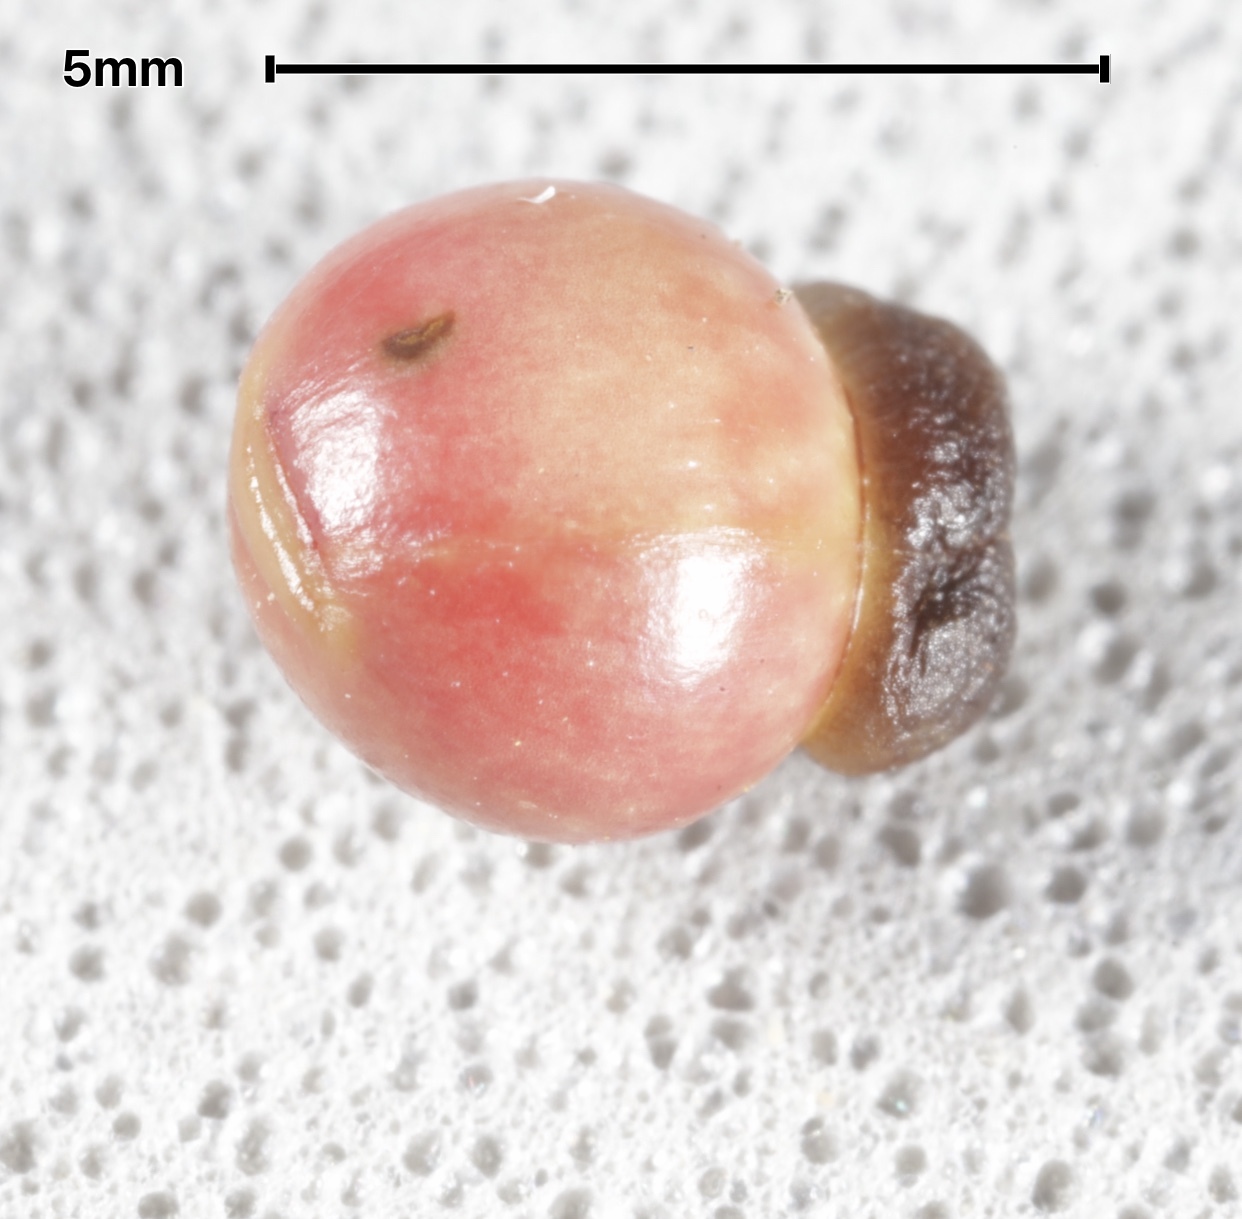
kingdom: Animalia
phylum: Arthropoda
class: Insecta
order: Hymenoptera
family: Cynipidae
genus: Kokkocynips
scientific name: Kokkocynips rileyi
